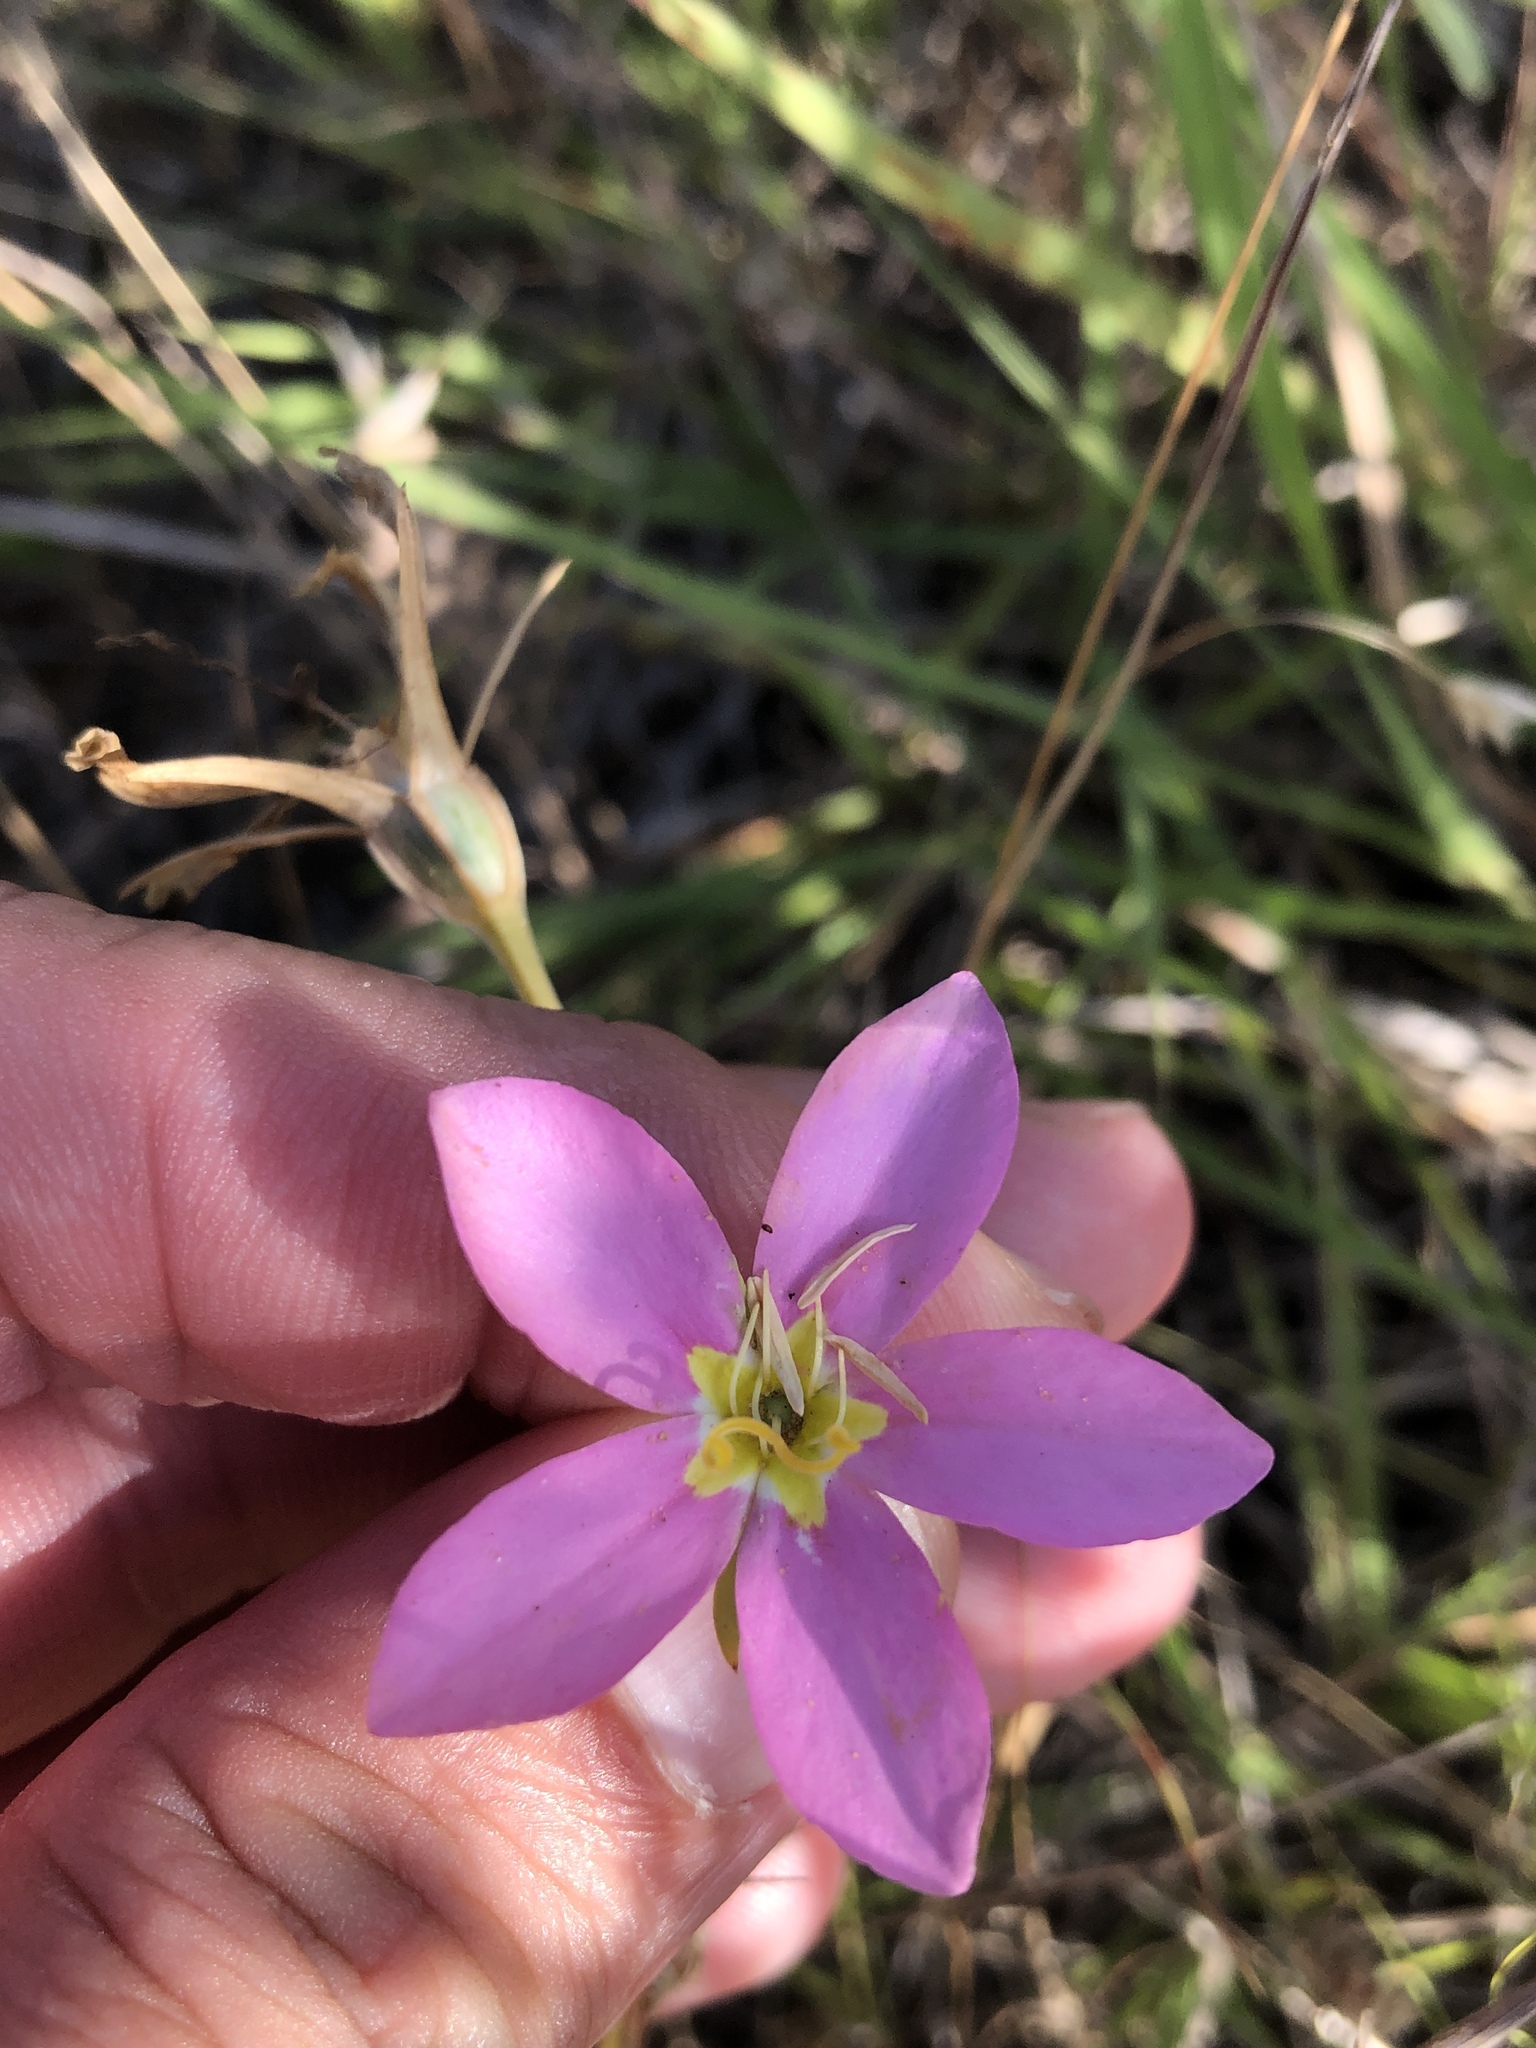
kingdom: Plantae
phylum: Tracheophyta
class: Magnoliopsida
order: Gentianales
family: Gentianaceae
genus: Sabatia
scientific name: Sabatia campestris
